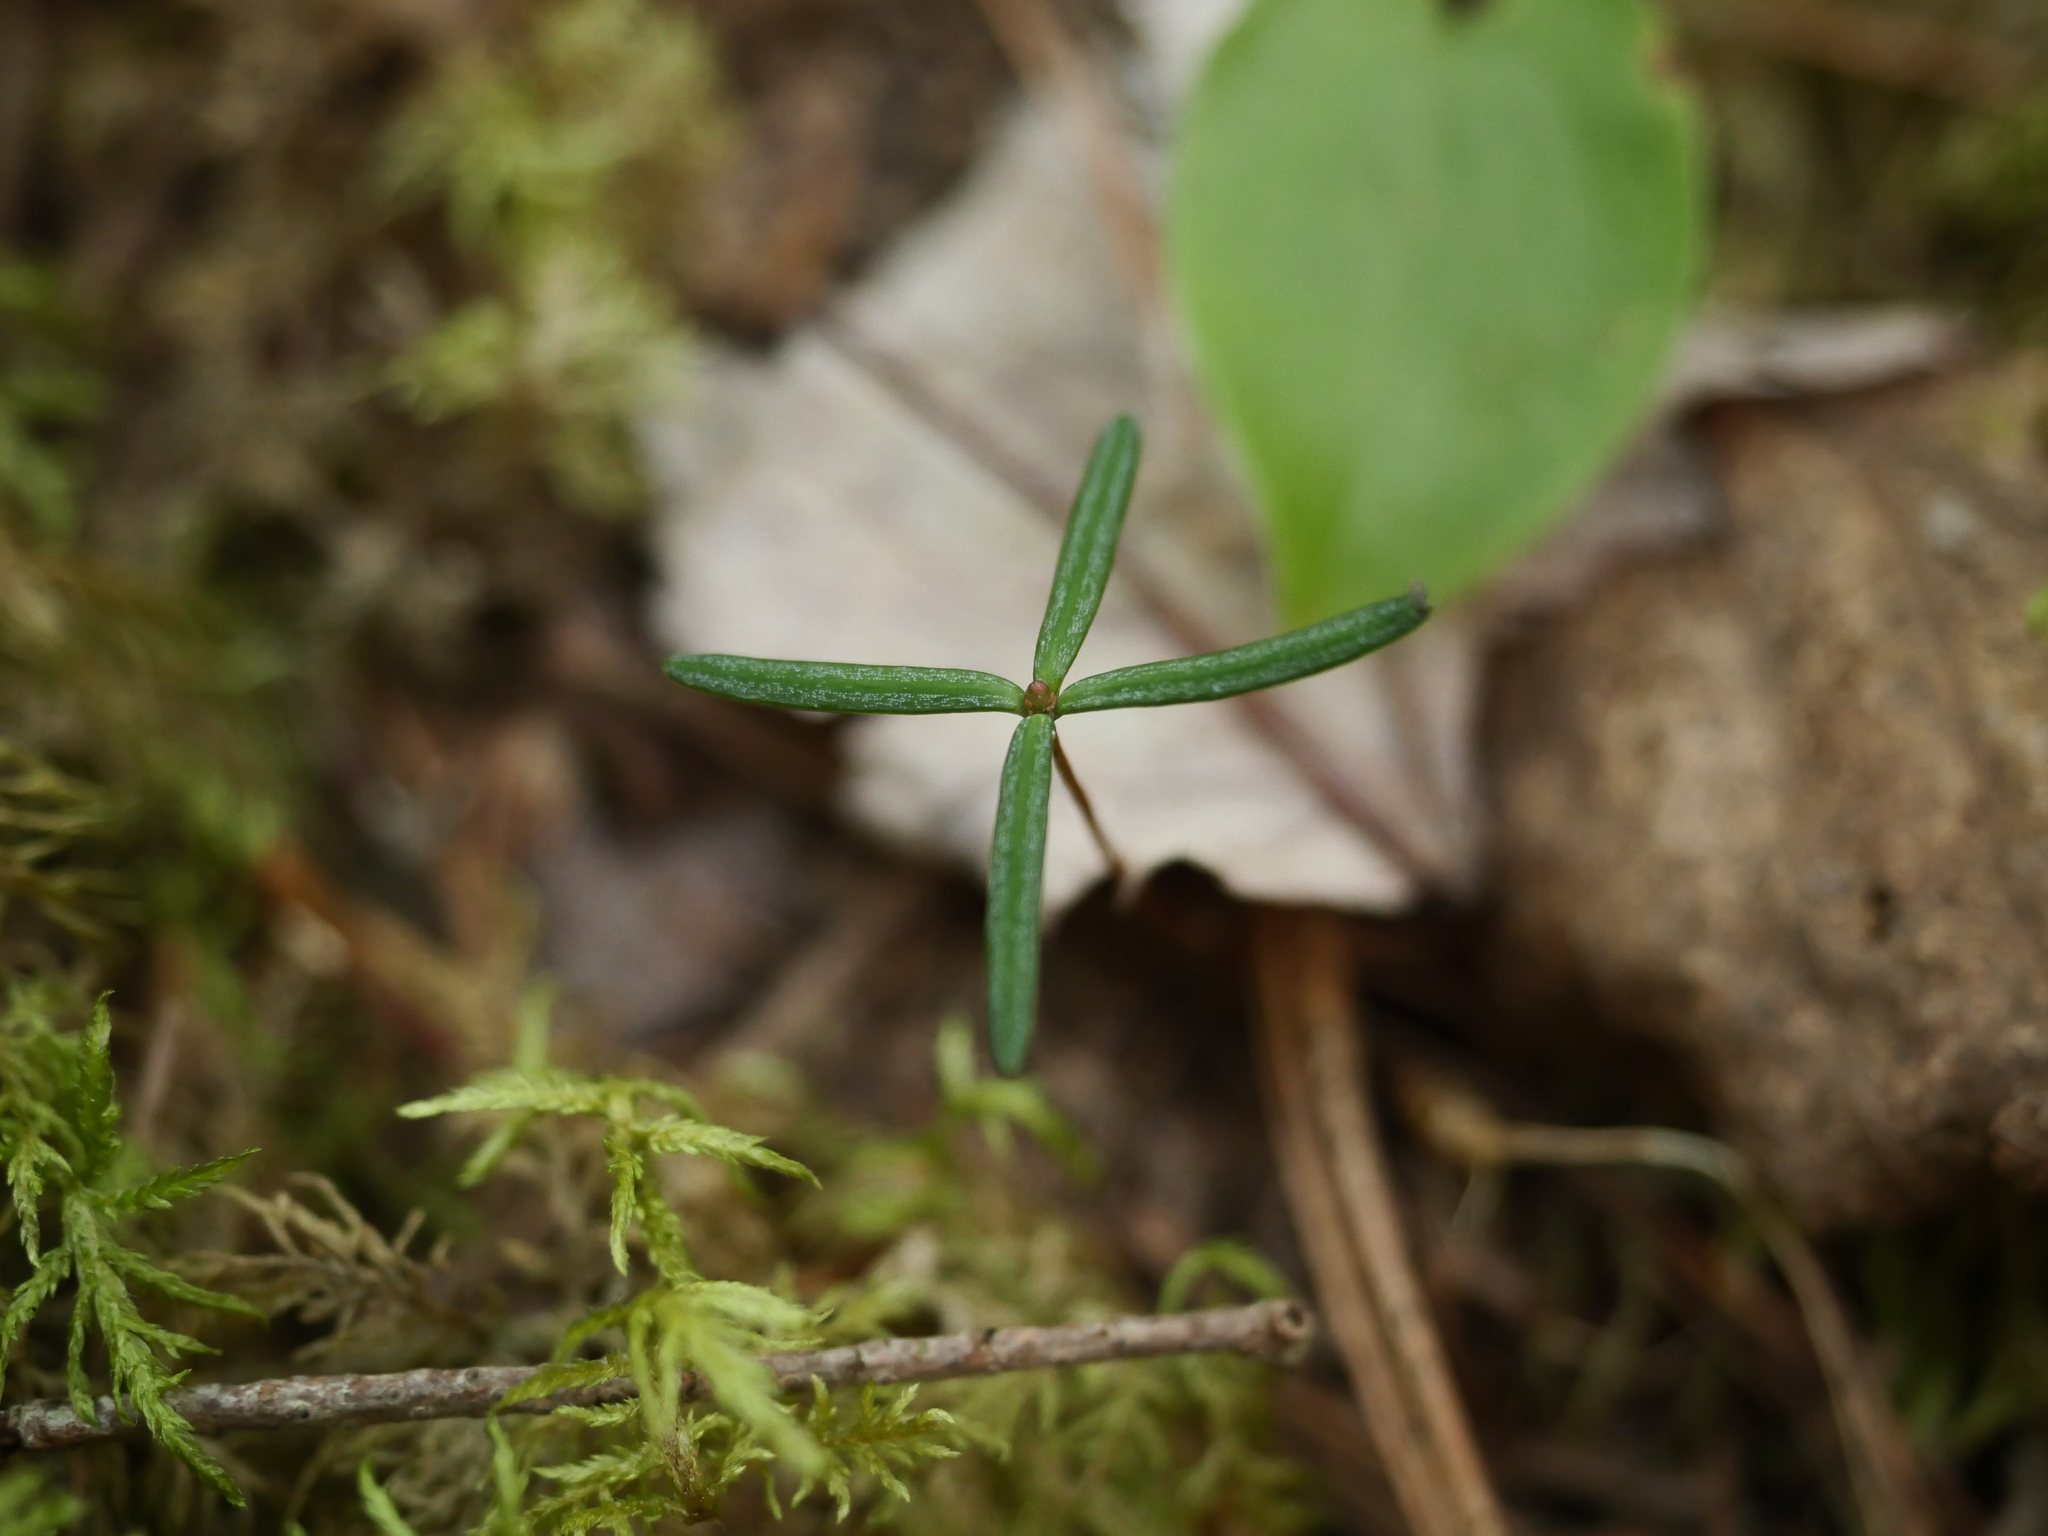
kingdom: Plantae
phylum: Tracheophyta
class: Pinopsida
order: Pinales
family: Pinaceae
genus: Abies
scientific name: Abies balsamea
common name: Balsam fir
